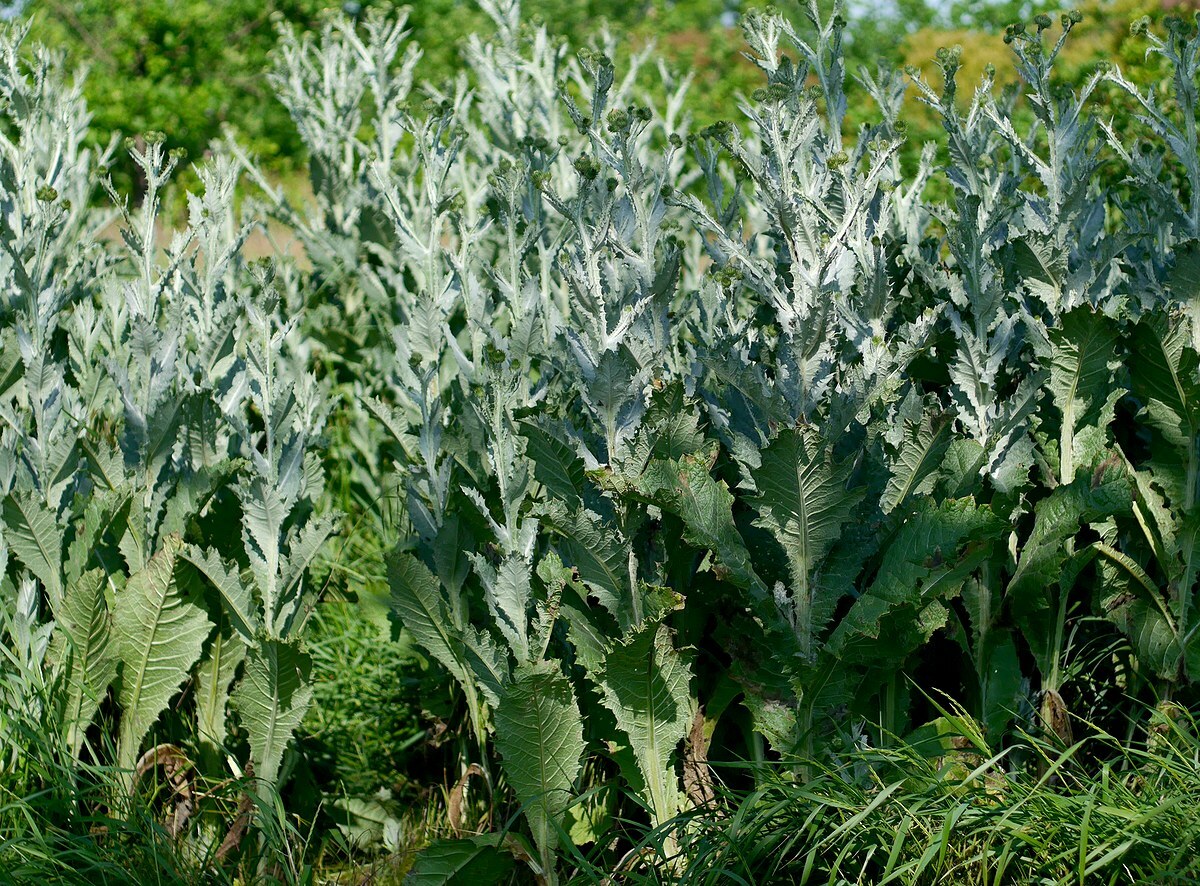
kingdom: Plantae
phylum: Tracheophyta
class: Magnoliopsida
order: Asterales
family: Asteraceae
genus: Onopordum
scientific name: Onopordum acanthium
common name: Scotch thistle
